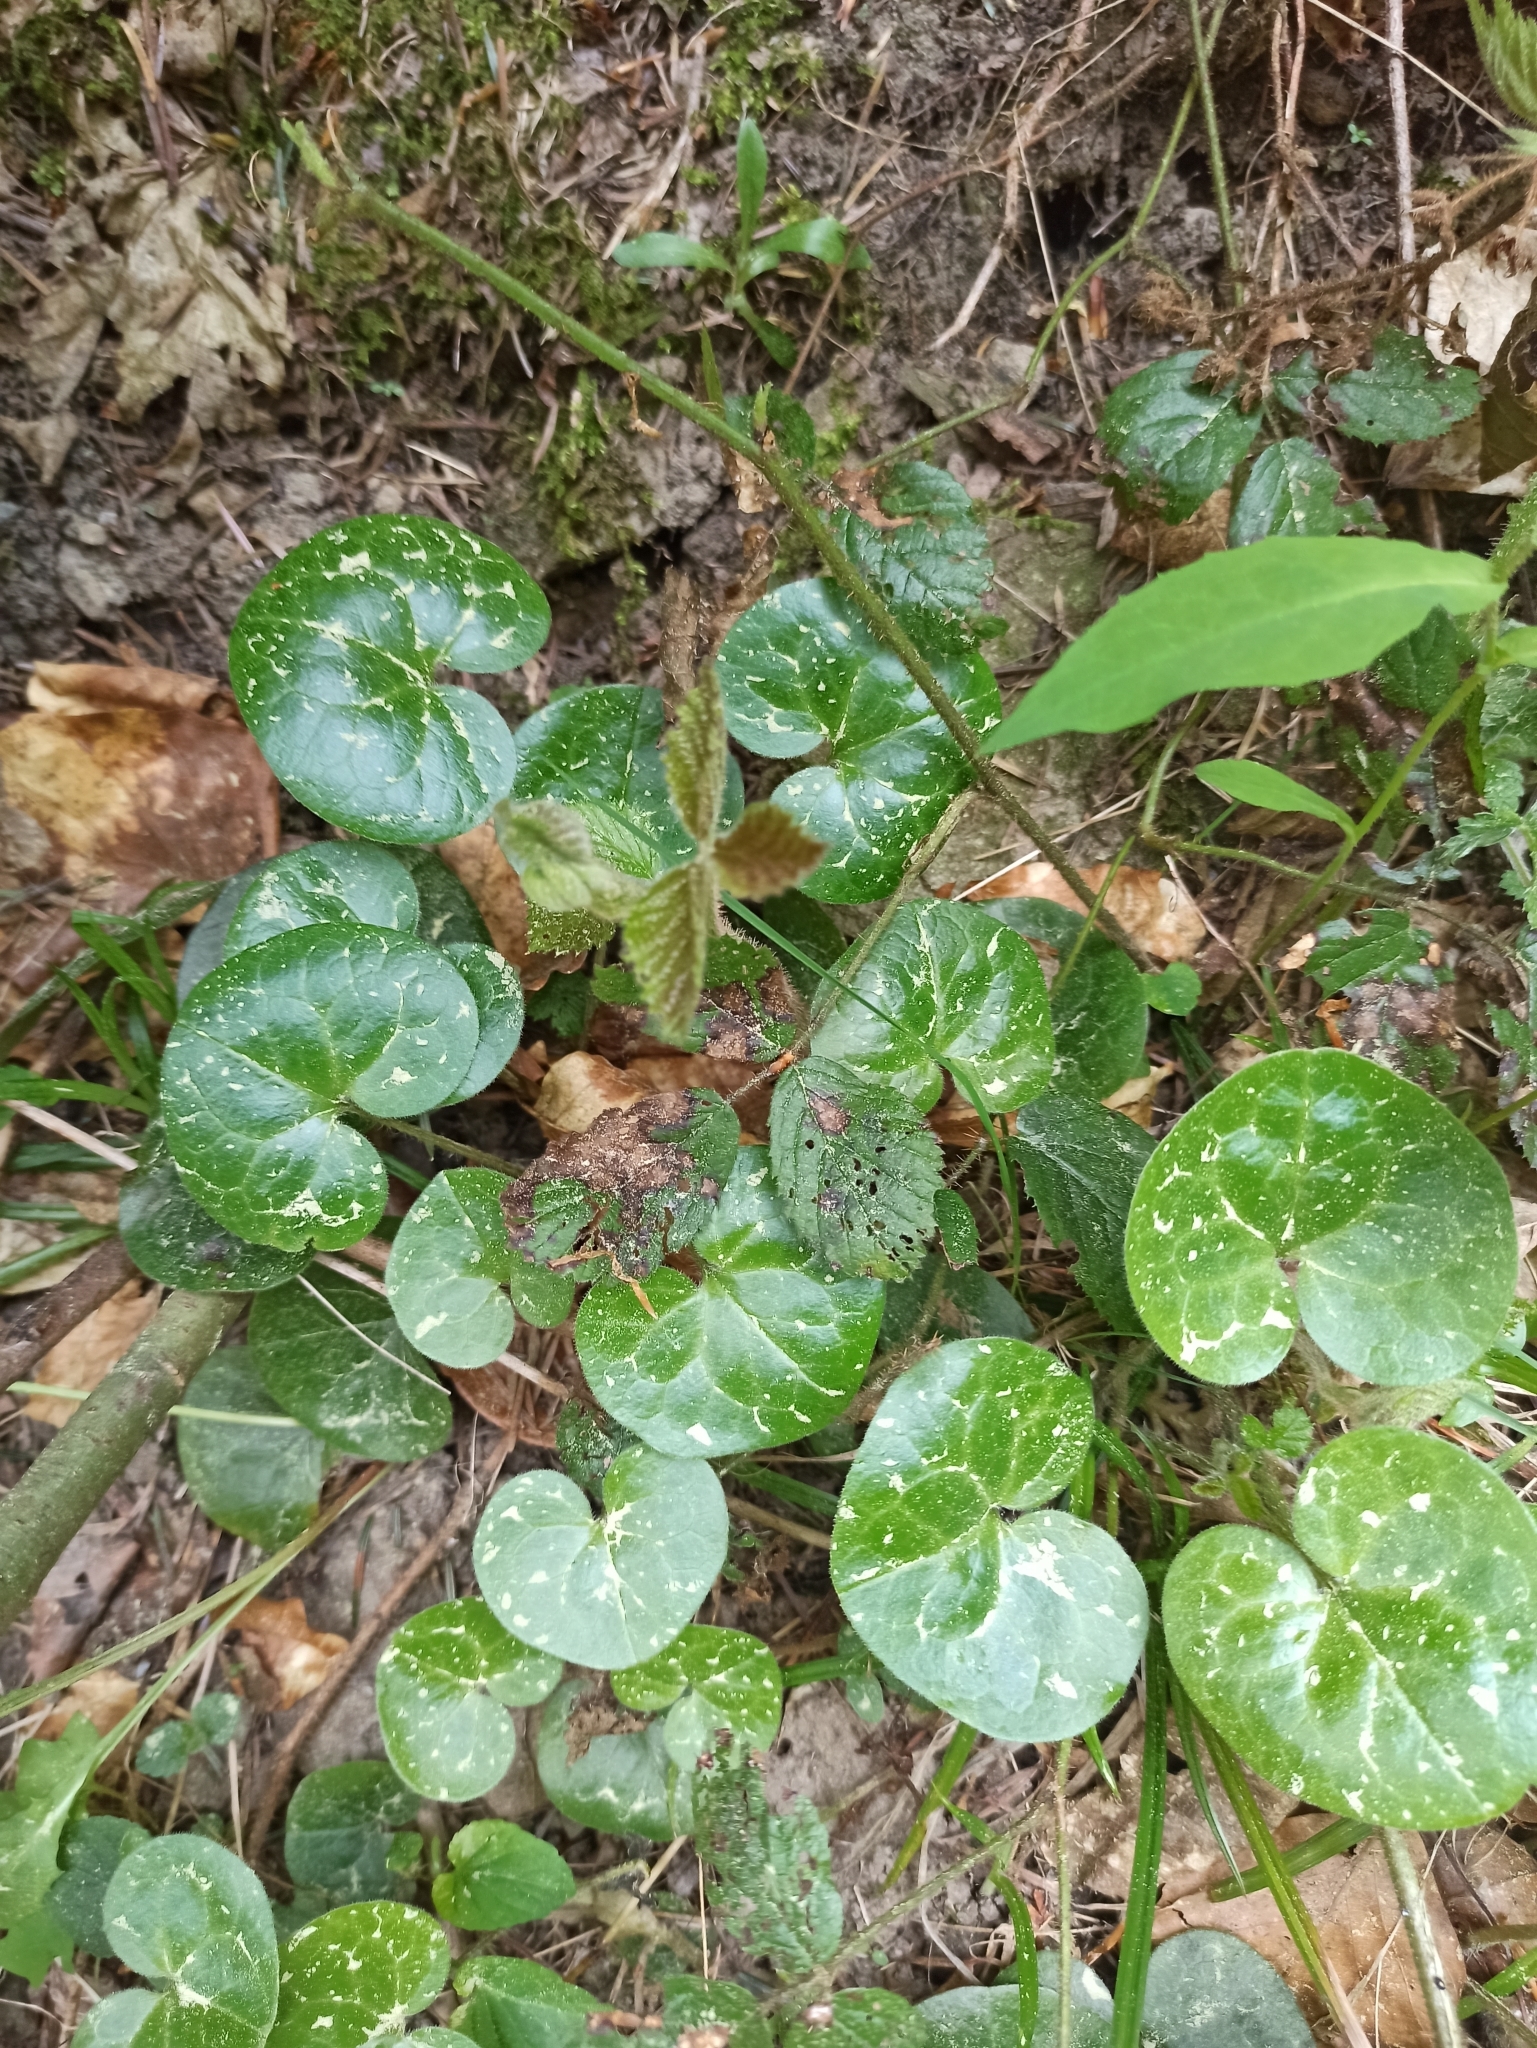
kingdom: Plantae
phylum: Tracheophyta
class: Magnoliopsida
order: Piperales
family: Aristolochiaceae
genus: Asarum
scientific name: Asarum europaeum
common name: Asarabacca
